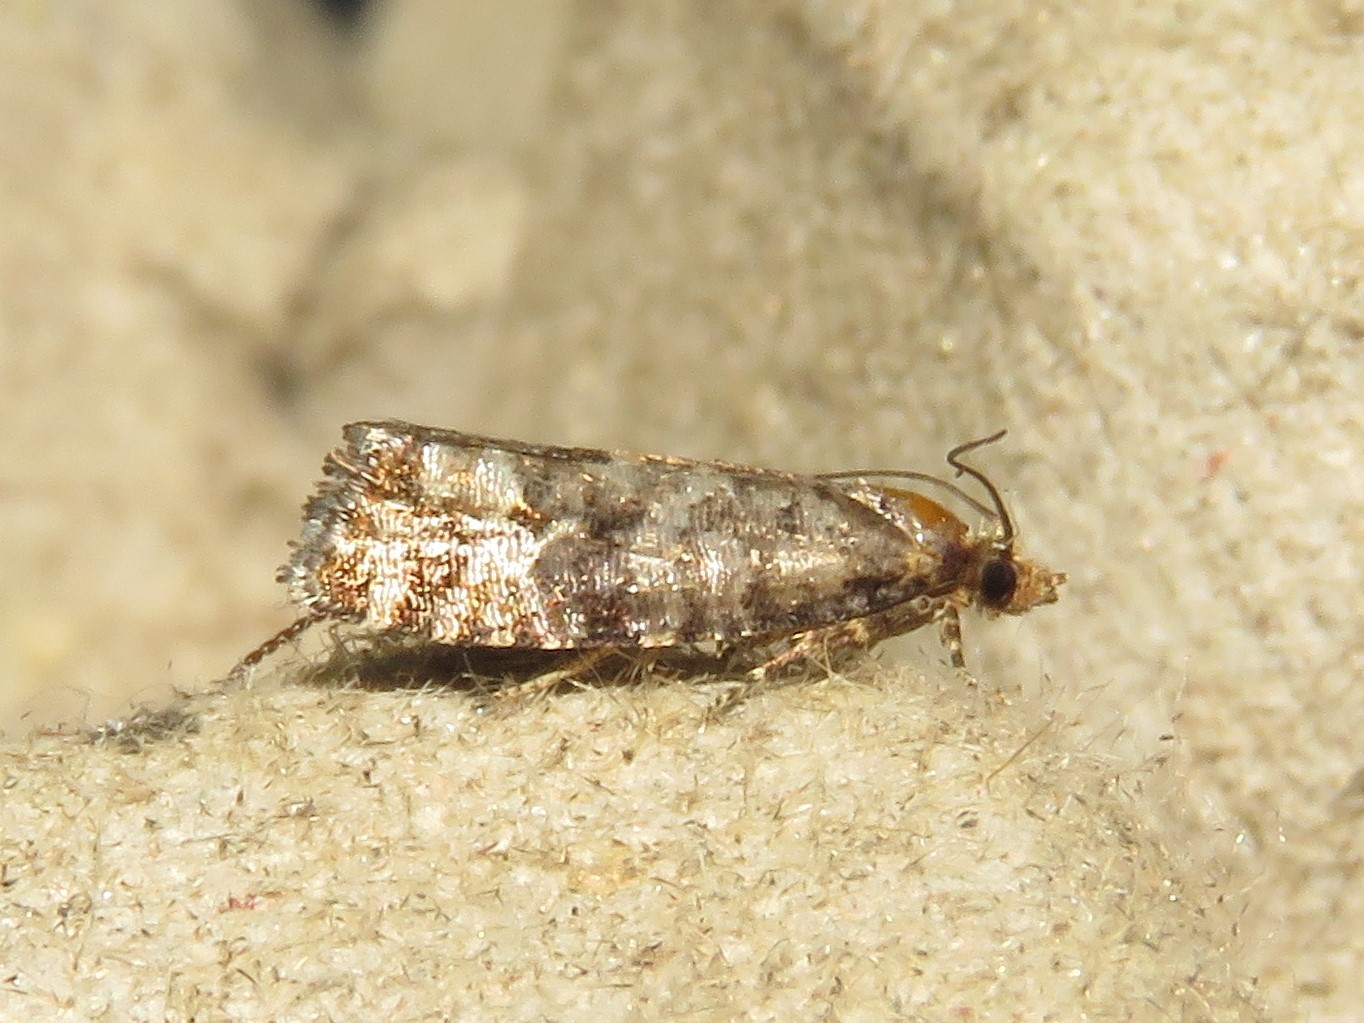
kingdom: Animalia
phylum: Arthropoda
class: Insecta
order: Lepidoptera
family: Tortricidae
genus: Eucopina
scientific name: Eucopina tocullionana
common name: White pinecone borer moth
